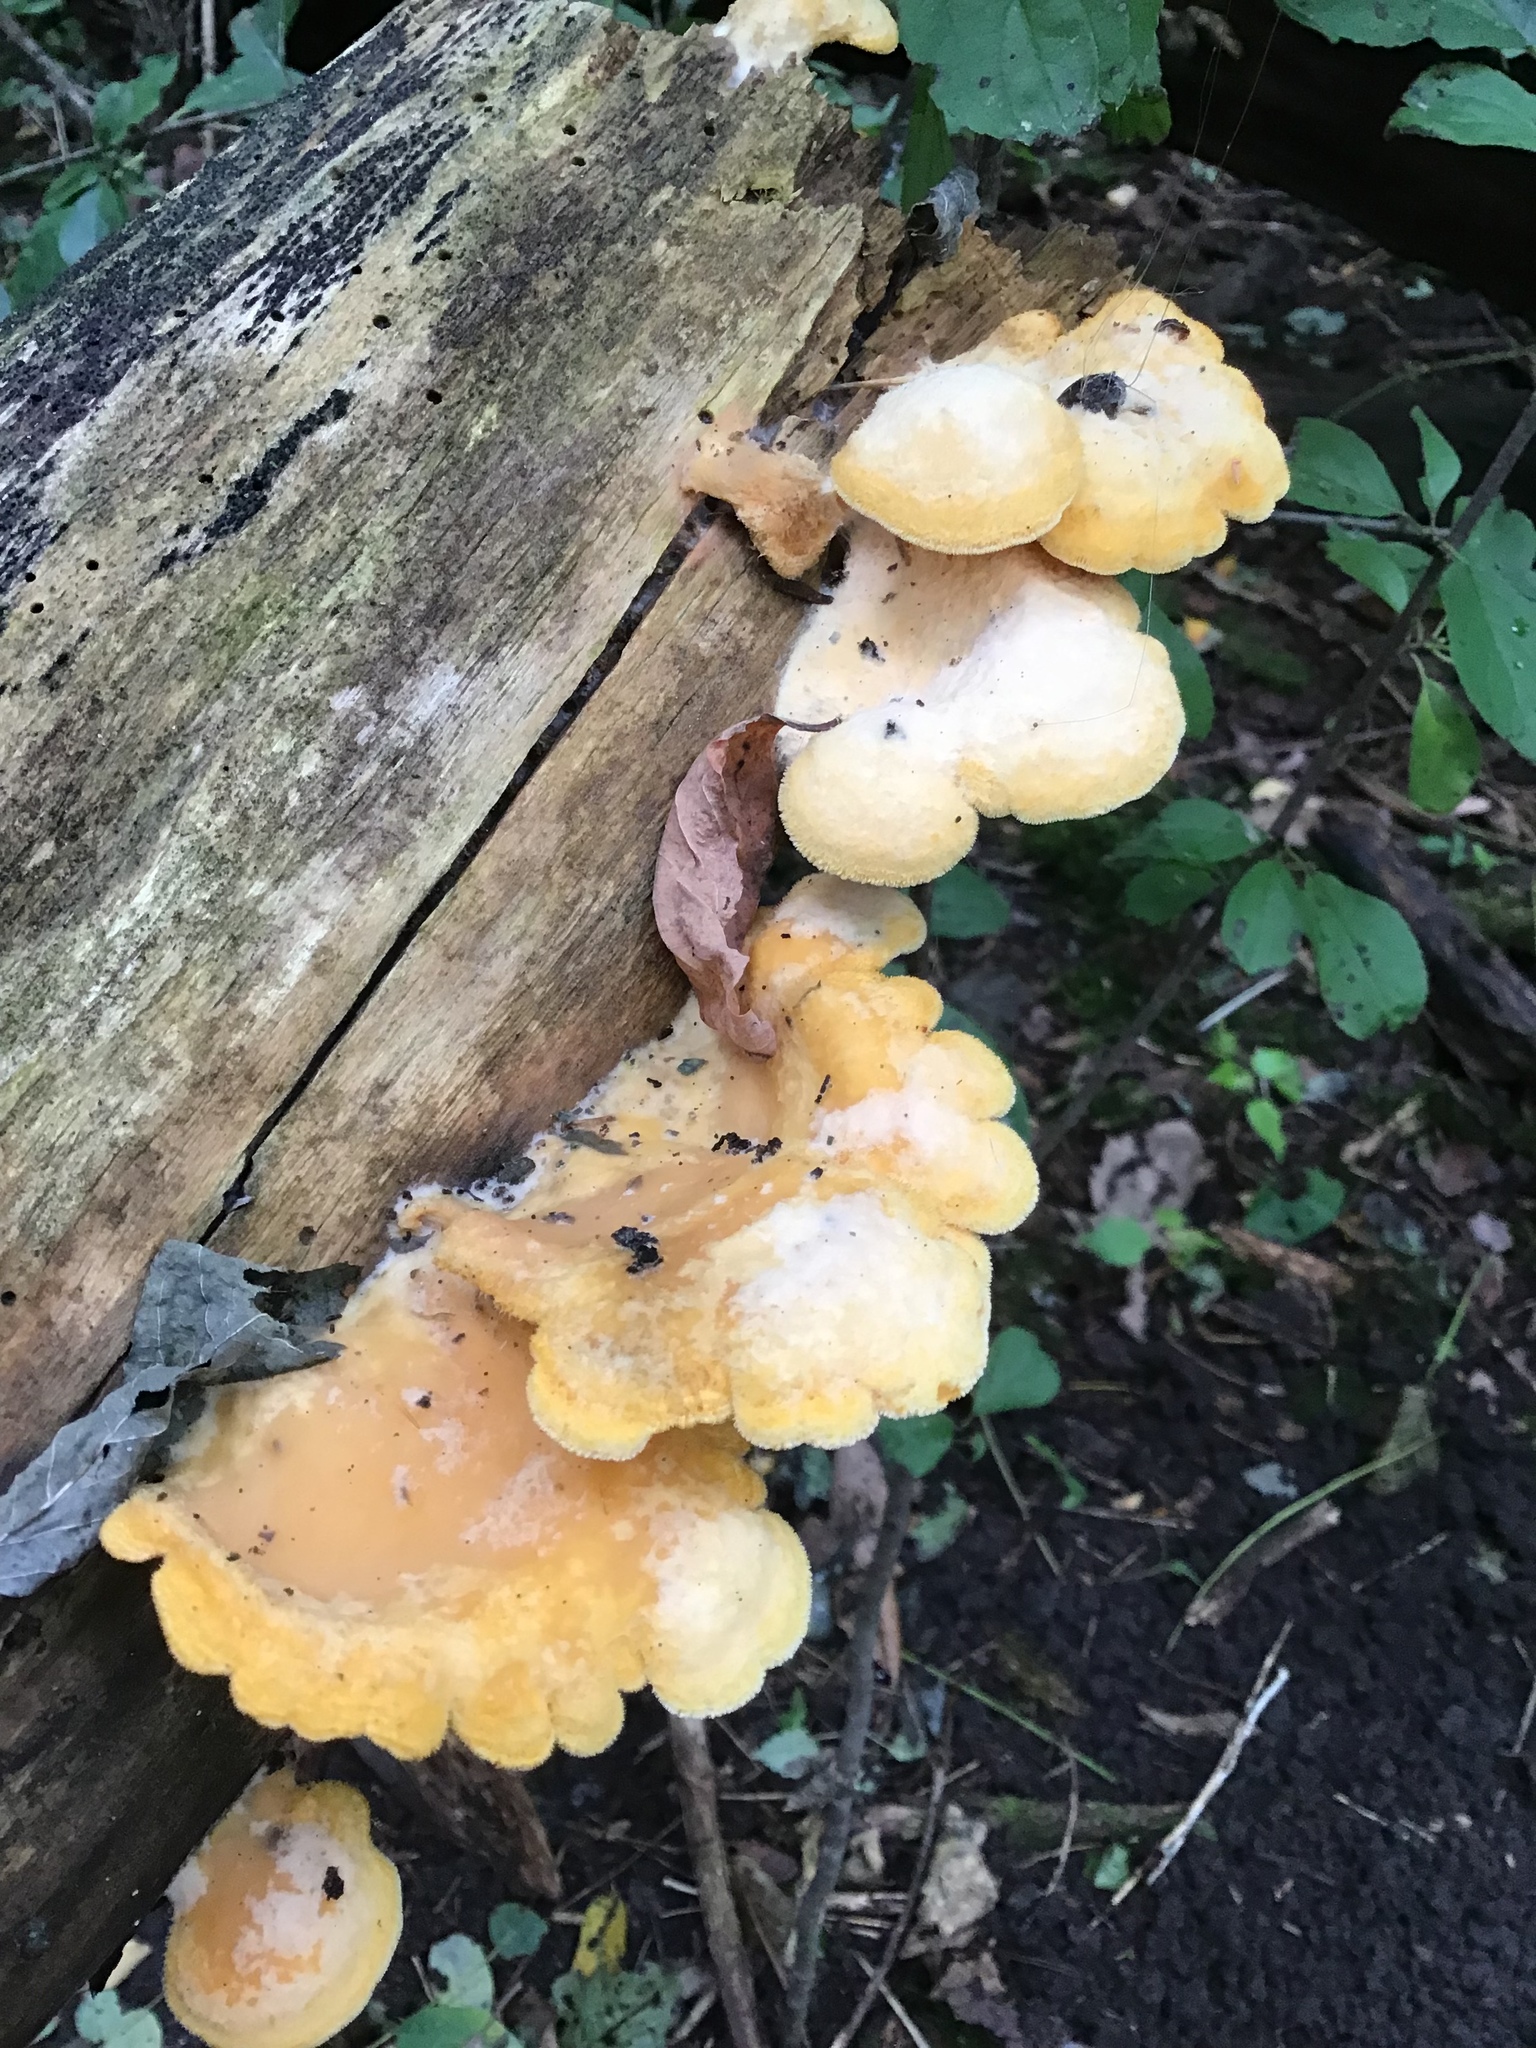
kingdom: Fungi
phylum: Basidiomycota
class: Agaricomycetes
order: Agaricales
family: Phyllotopsidaceae
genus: Phyllotopsis
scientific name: Phyllotopsis nidulans
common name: Orange mock oyster
